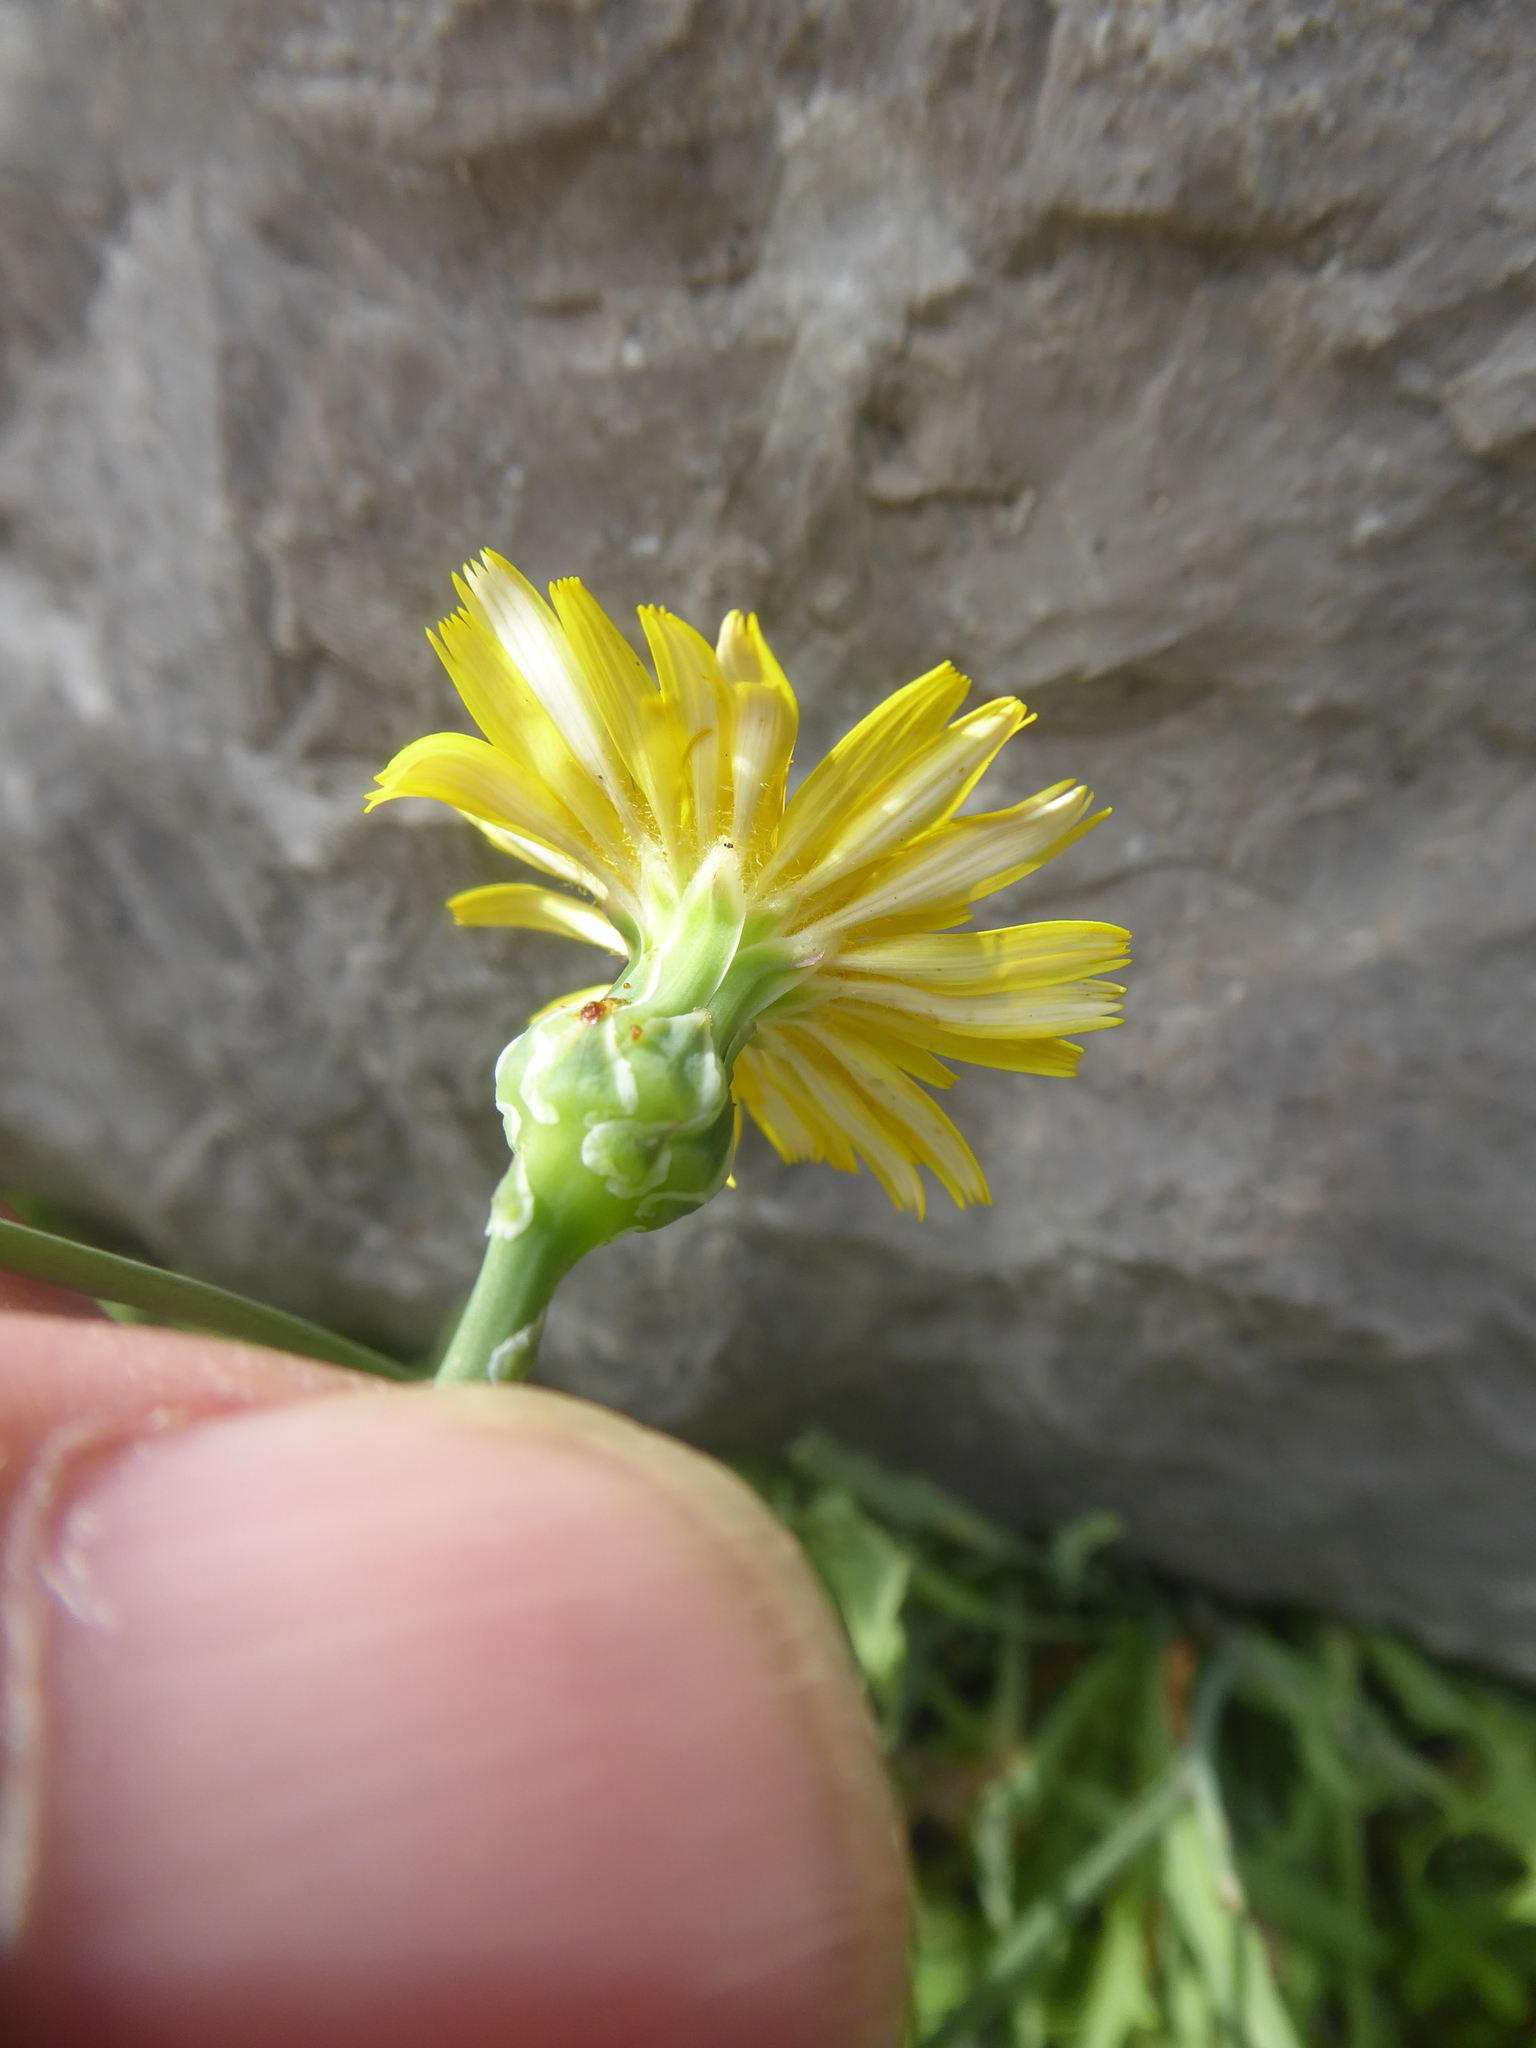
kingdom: Plantae
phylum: Tracheophyta
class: Magnoliopsida
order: Asterales
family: Asteraceae
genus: Reichardia
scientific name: Reichardia picroides
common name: Common brighteyes
